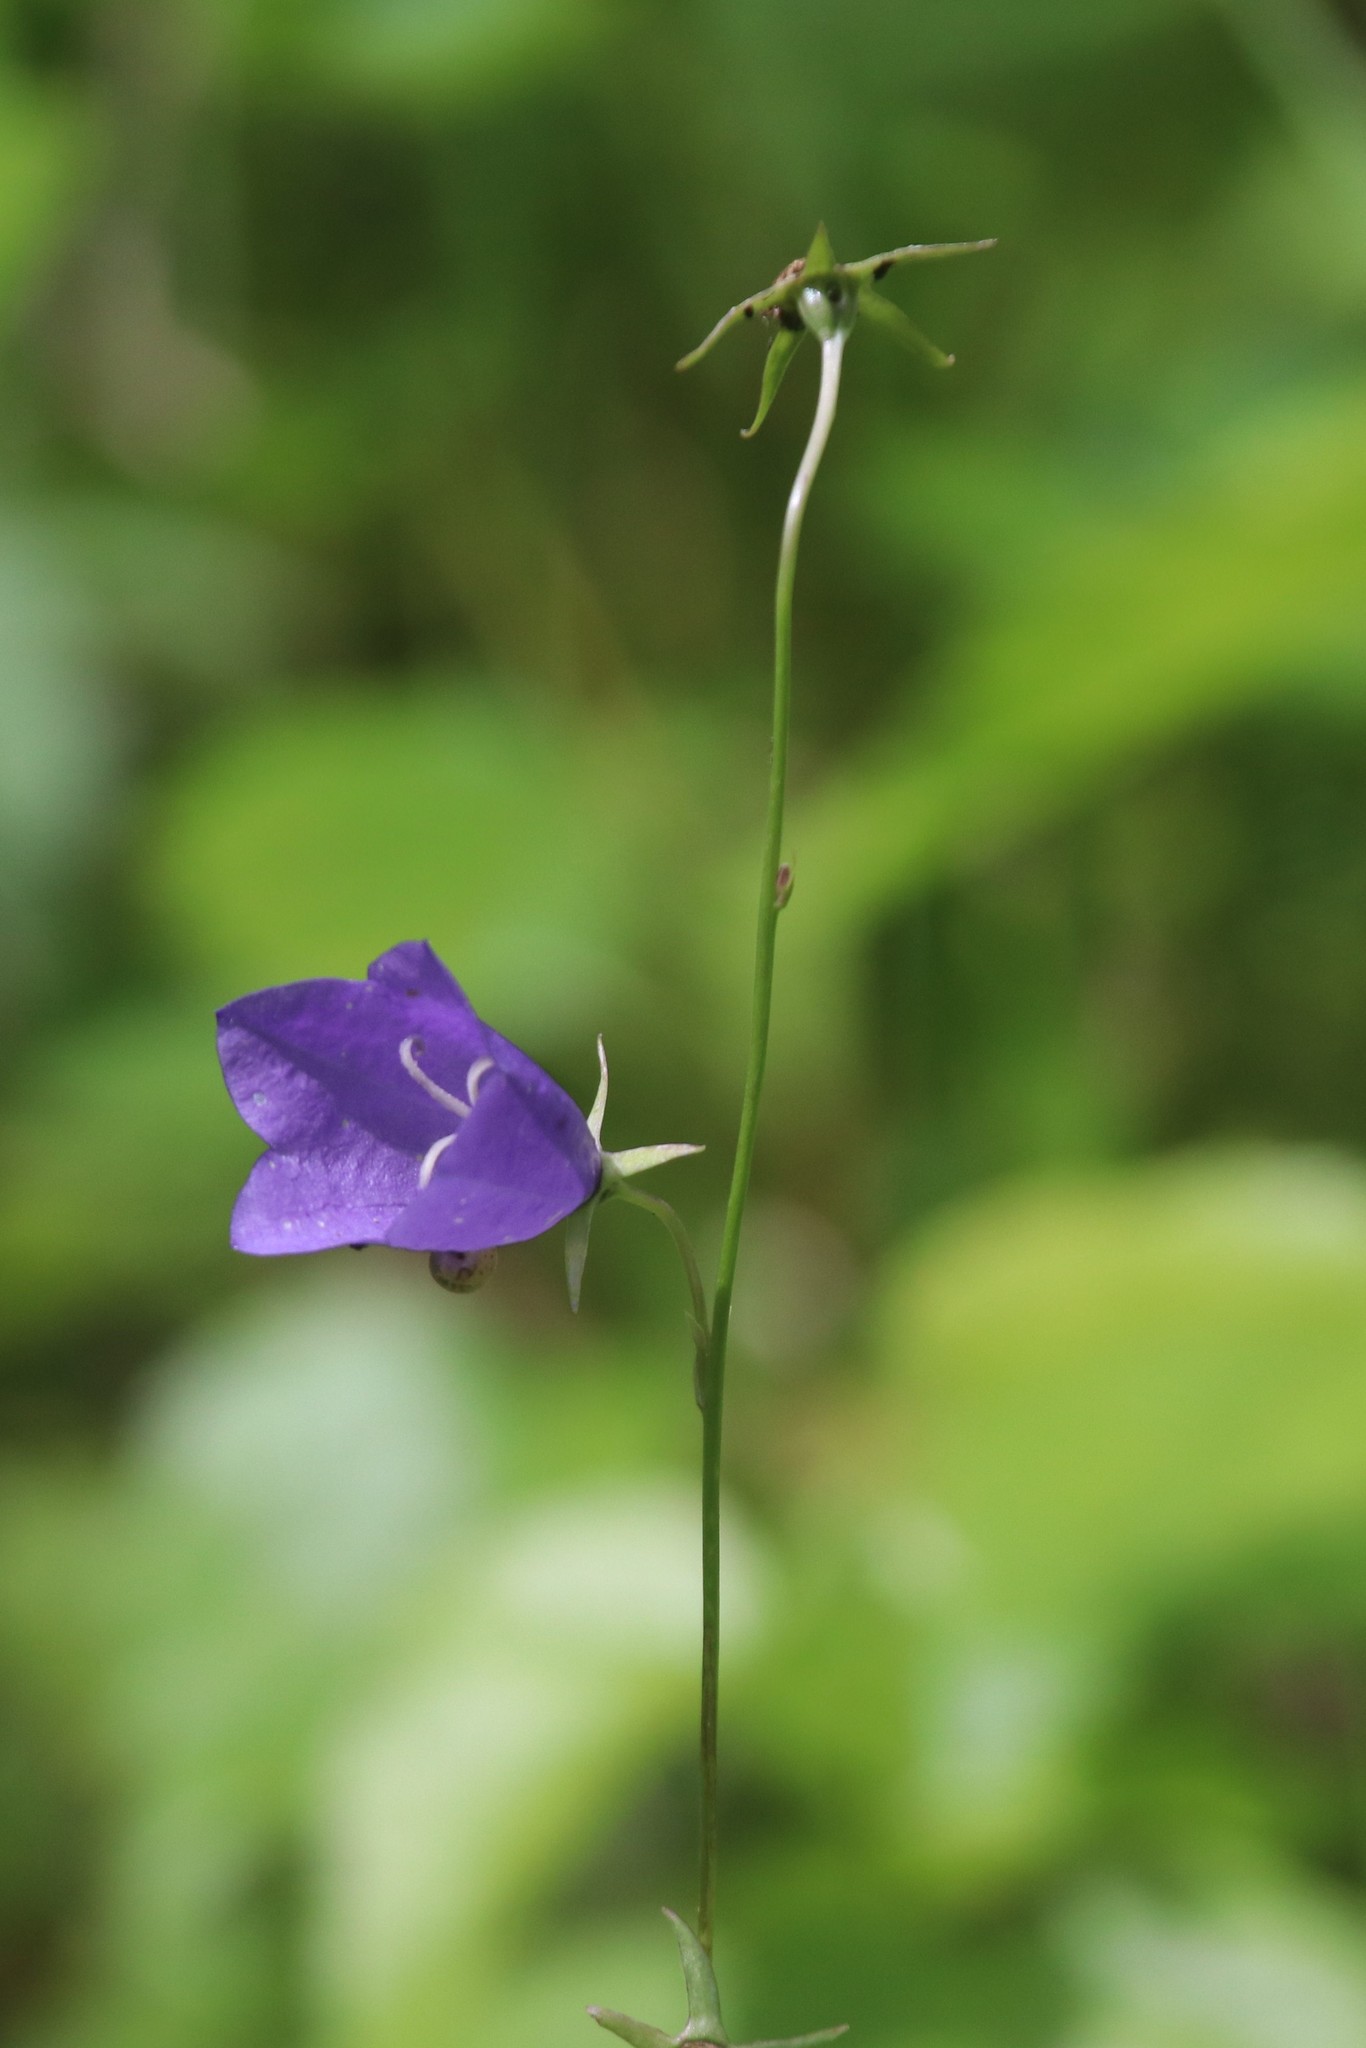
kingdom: Plantae
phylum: Tracheophyta
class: Magnoliopsida
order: Asterales
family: Campanulaceae
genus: Campanula
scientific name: Campanula persicifolia
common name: Peach-leaved bellflower
